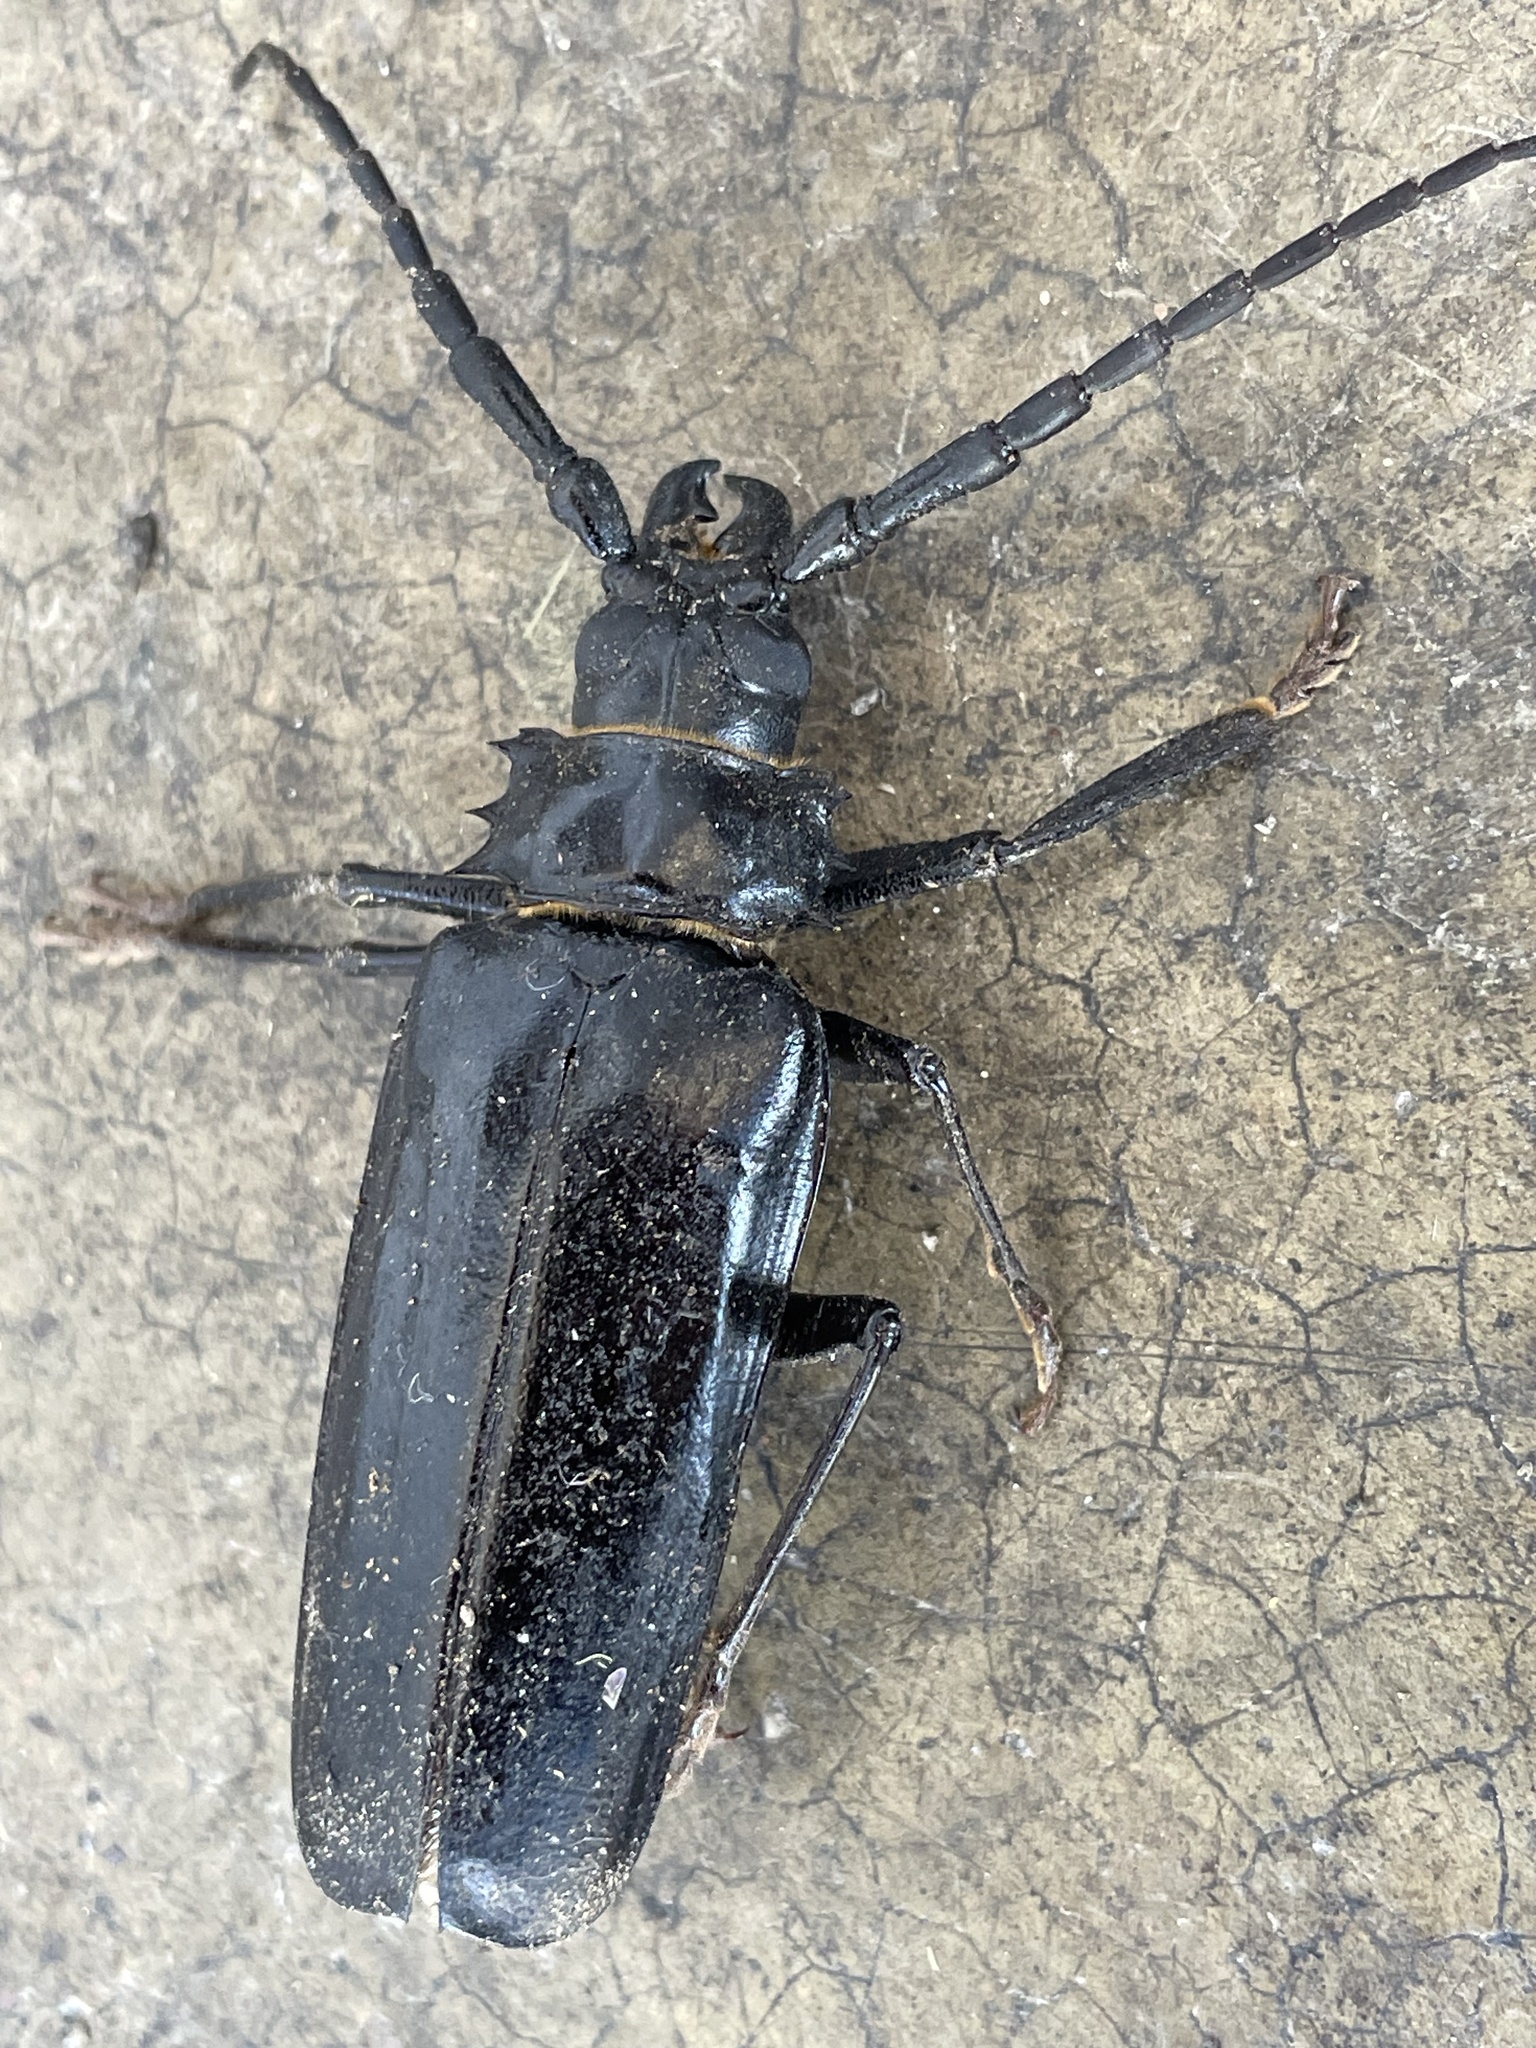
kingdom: Animalia
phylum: Arthropoda
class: Insecta
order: Coleoptera
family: Cerambycidae
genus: Derobrachus
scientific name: Derobrachus hovorei
